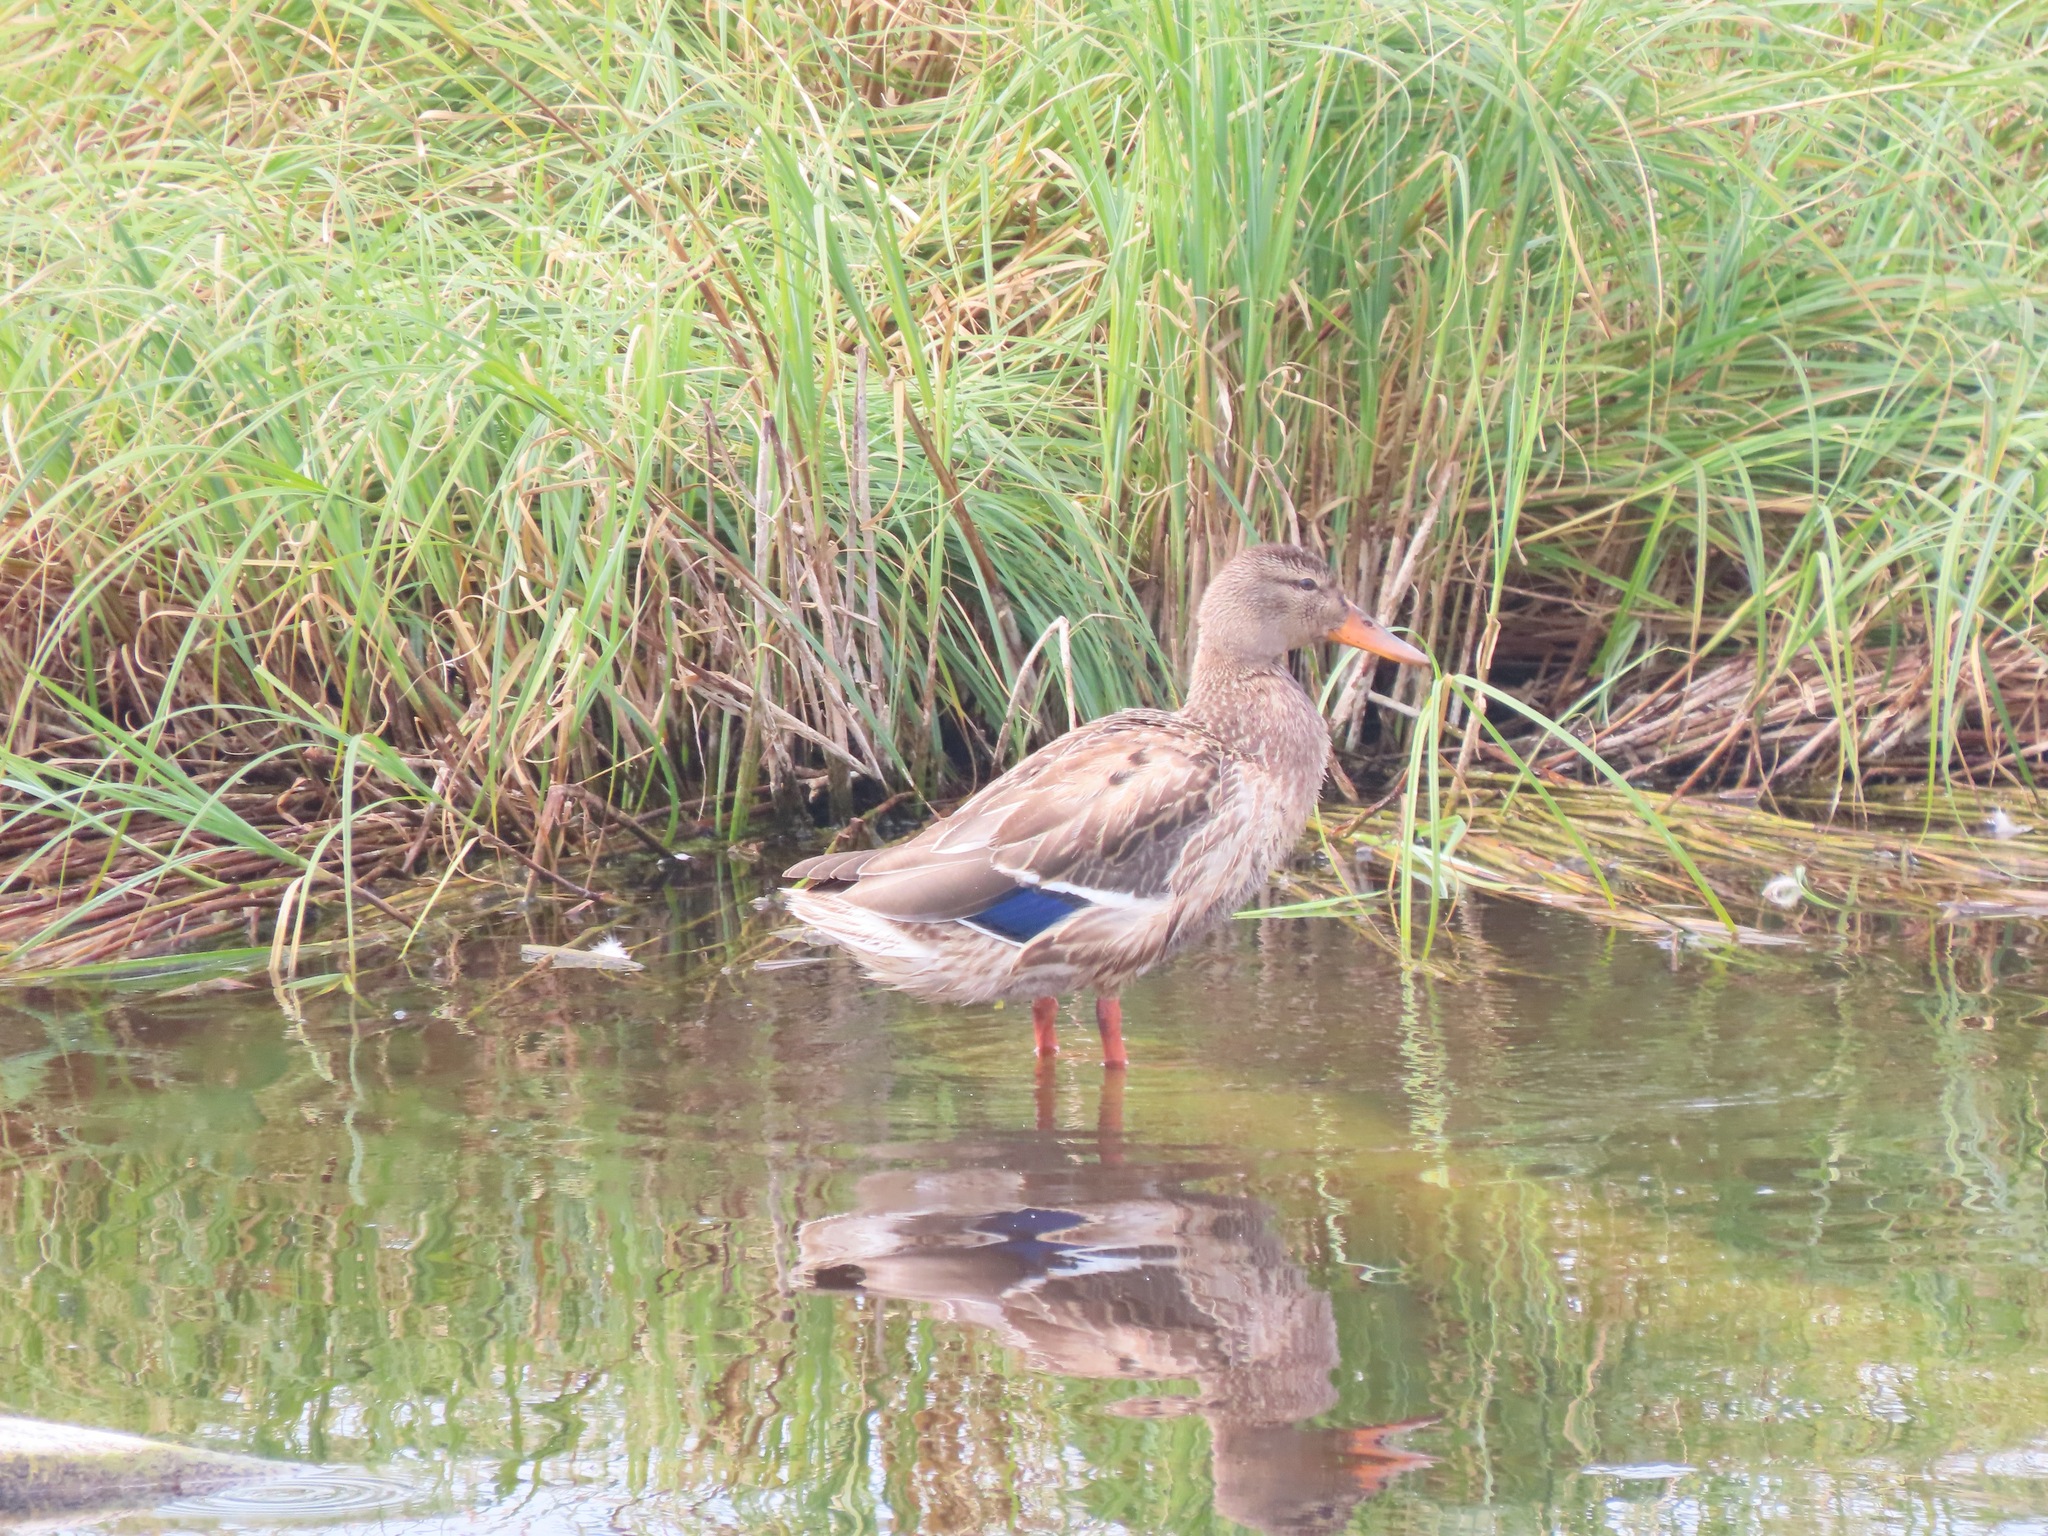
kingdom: Animalia
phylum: Chordata
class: Aves
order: Anseriformes
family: Anatidae
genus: Anas
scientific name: Anas platyrhynchos
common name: Mallard
